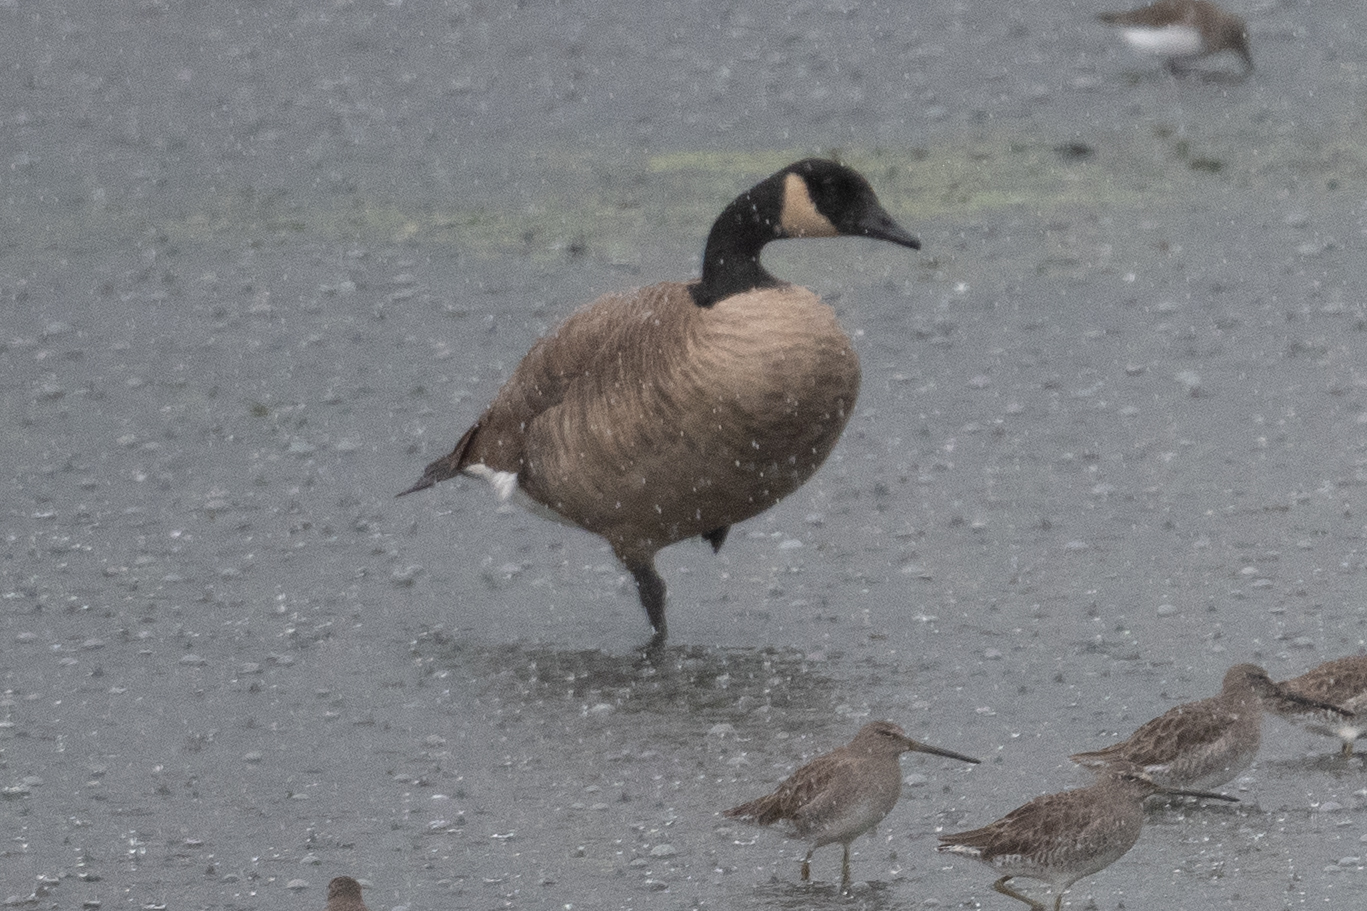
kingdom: Animalia
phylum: Chordata
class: Aves
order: Anseriformes
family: Anatidae
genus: Branta
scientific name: Branta canadensis
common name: Canada goose
